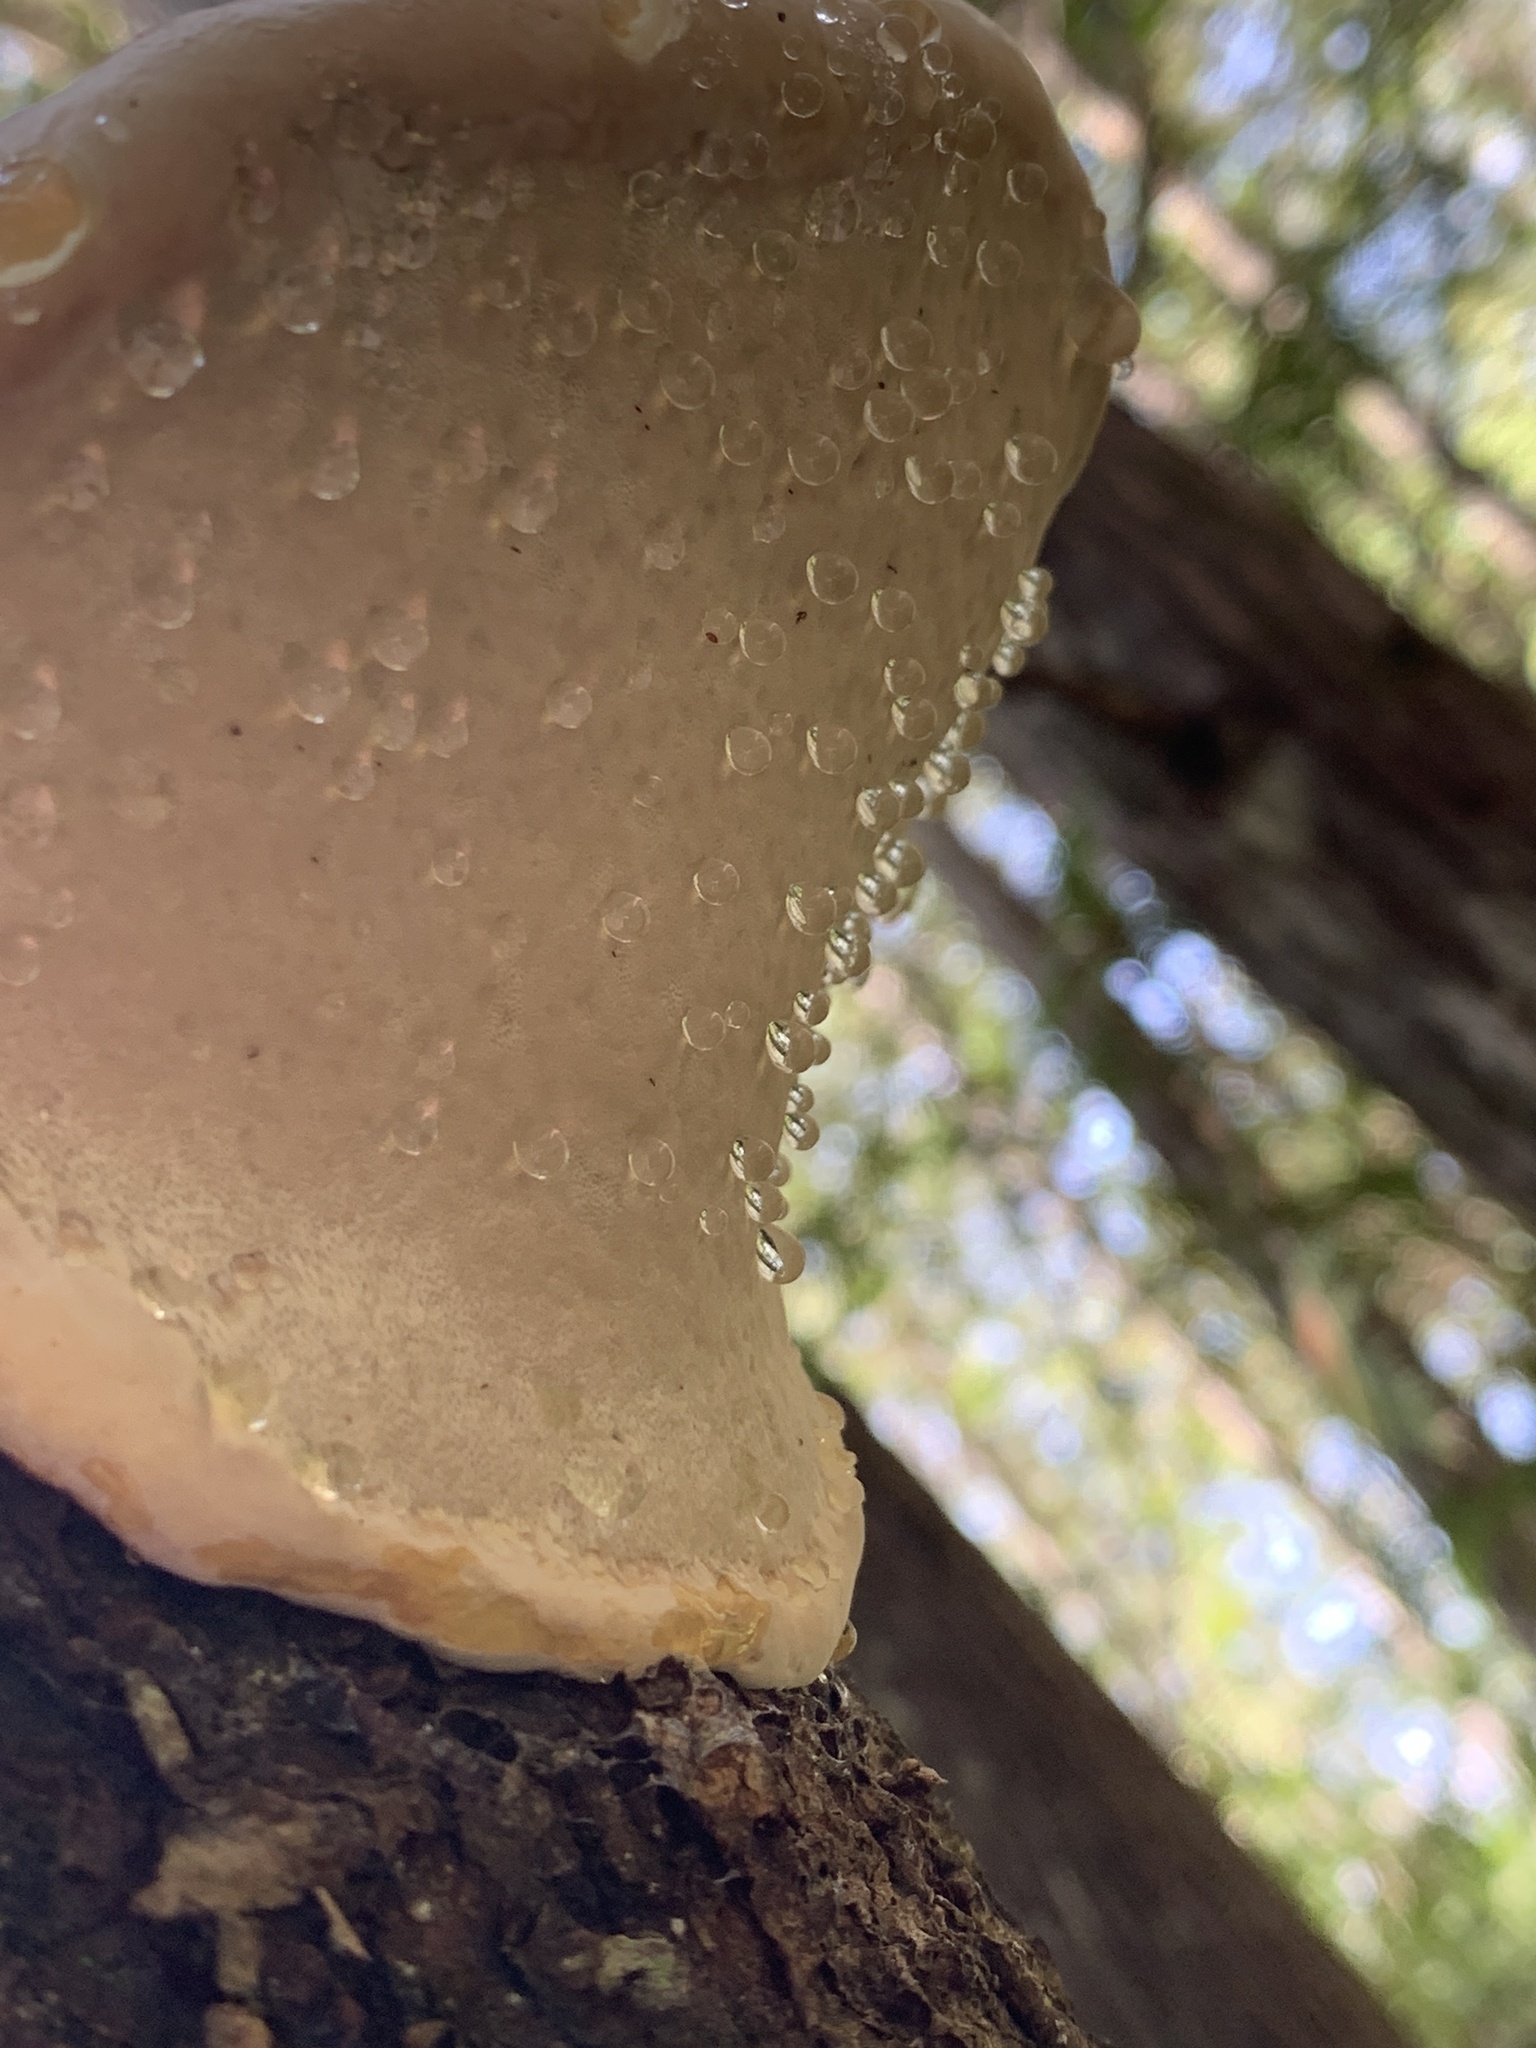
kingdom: Fungi
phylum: Basidiomycota
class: Agaricomycetes
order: Polyporales
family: Fomitopsidaceae
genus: Fomitopsis
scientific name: Fomitopsis mounceae
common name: Northern red belt
